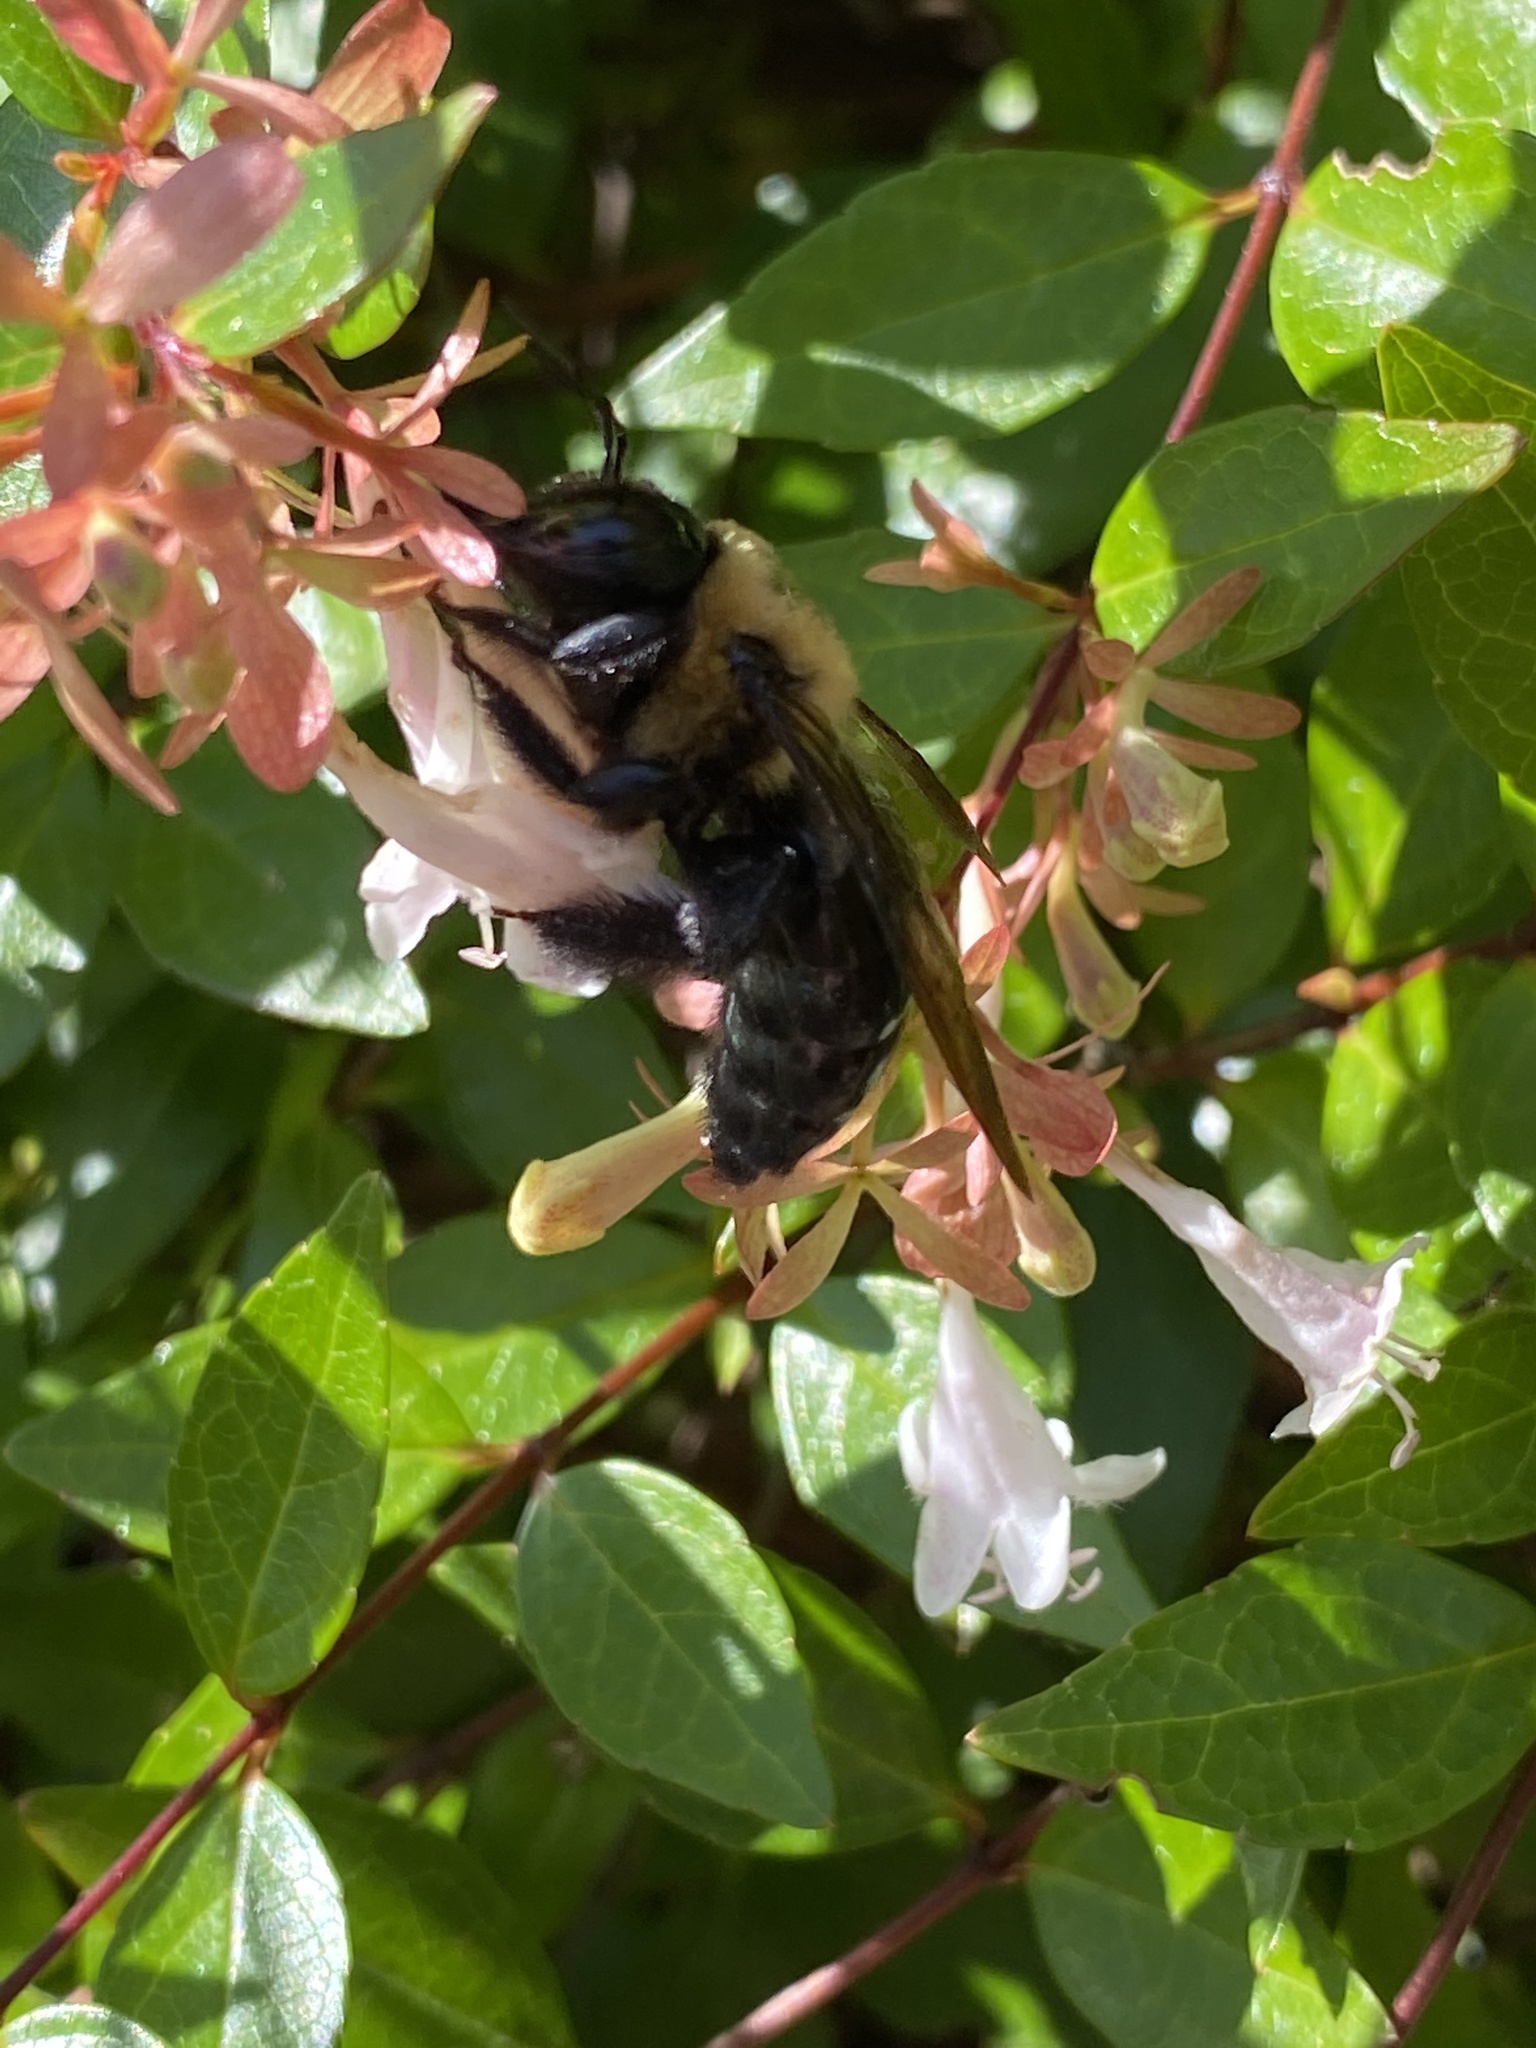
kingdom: Animalia
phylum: Arthropoda
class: Insecta
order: Hymenoptera
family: Apidae
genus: Xylocopa
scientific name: Xylocopa virginica
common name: Carpenter bee
